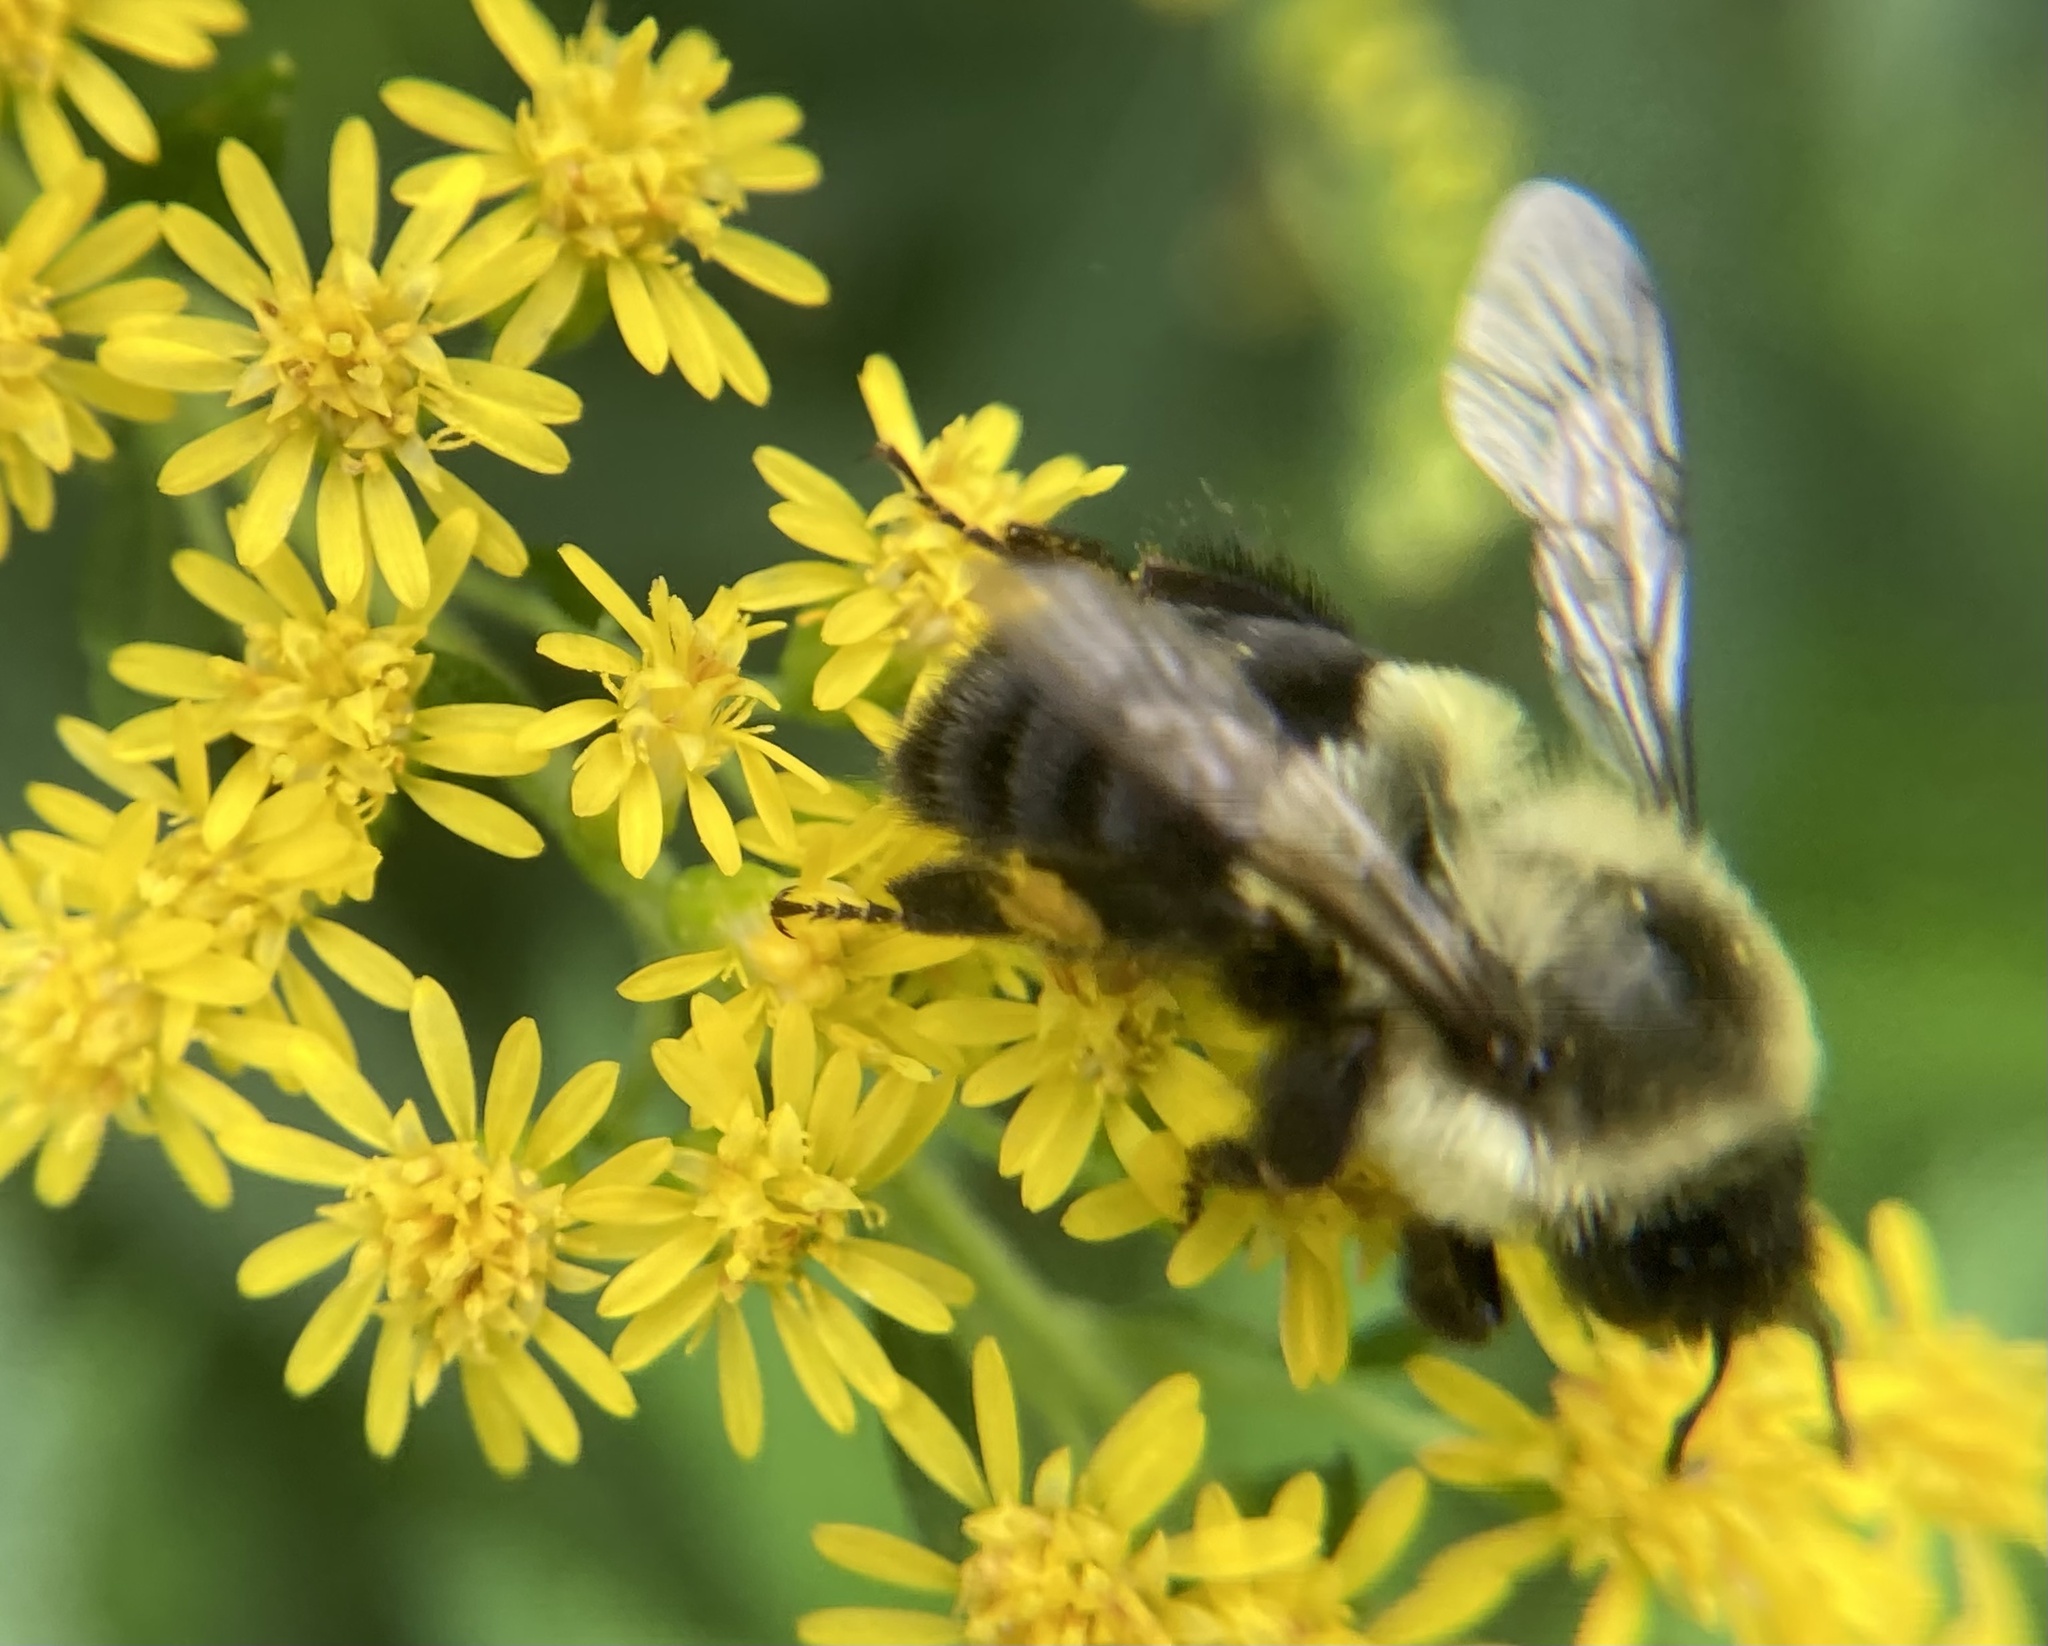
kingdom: Animalia
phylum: Arthropoda
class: Insecta
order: Hymenoptera
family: Apidae
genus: Bombus
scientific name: Bombus impatiens
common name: Common eastern bumble bee
